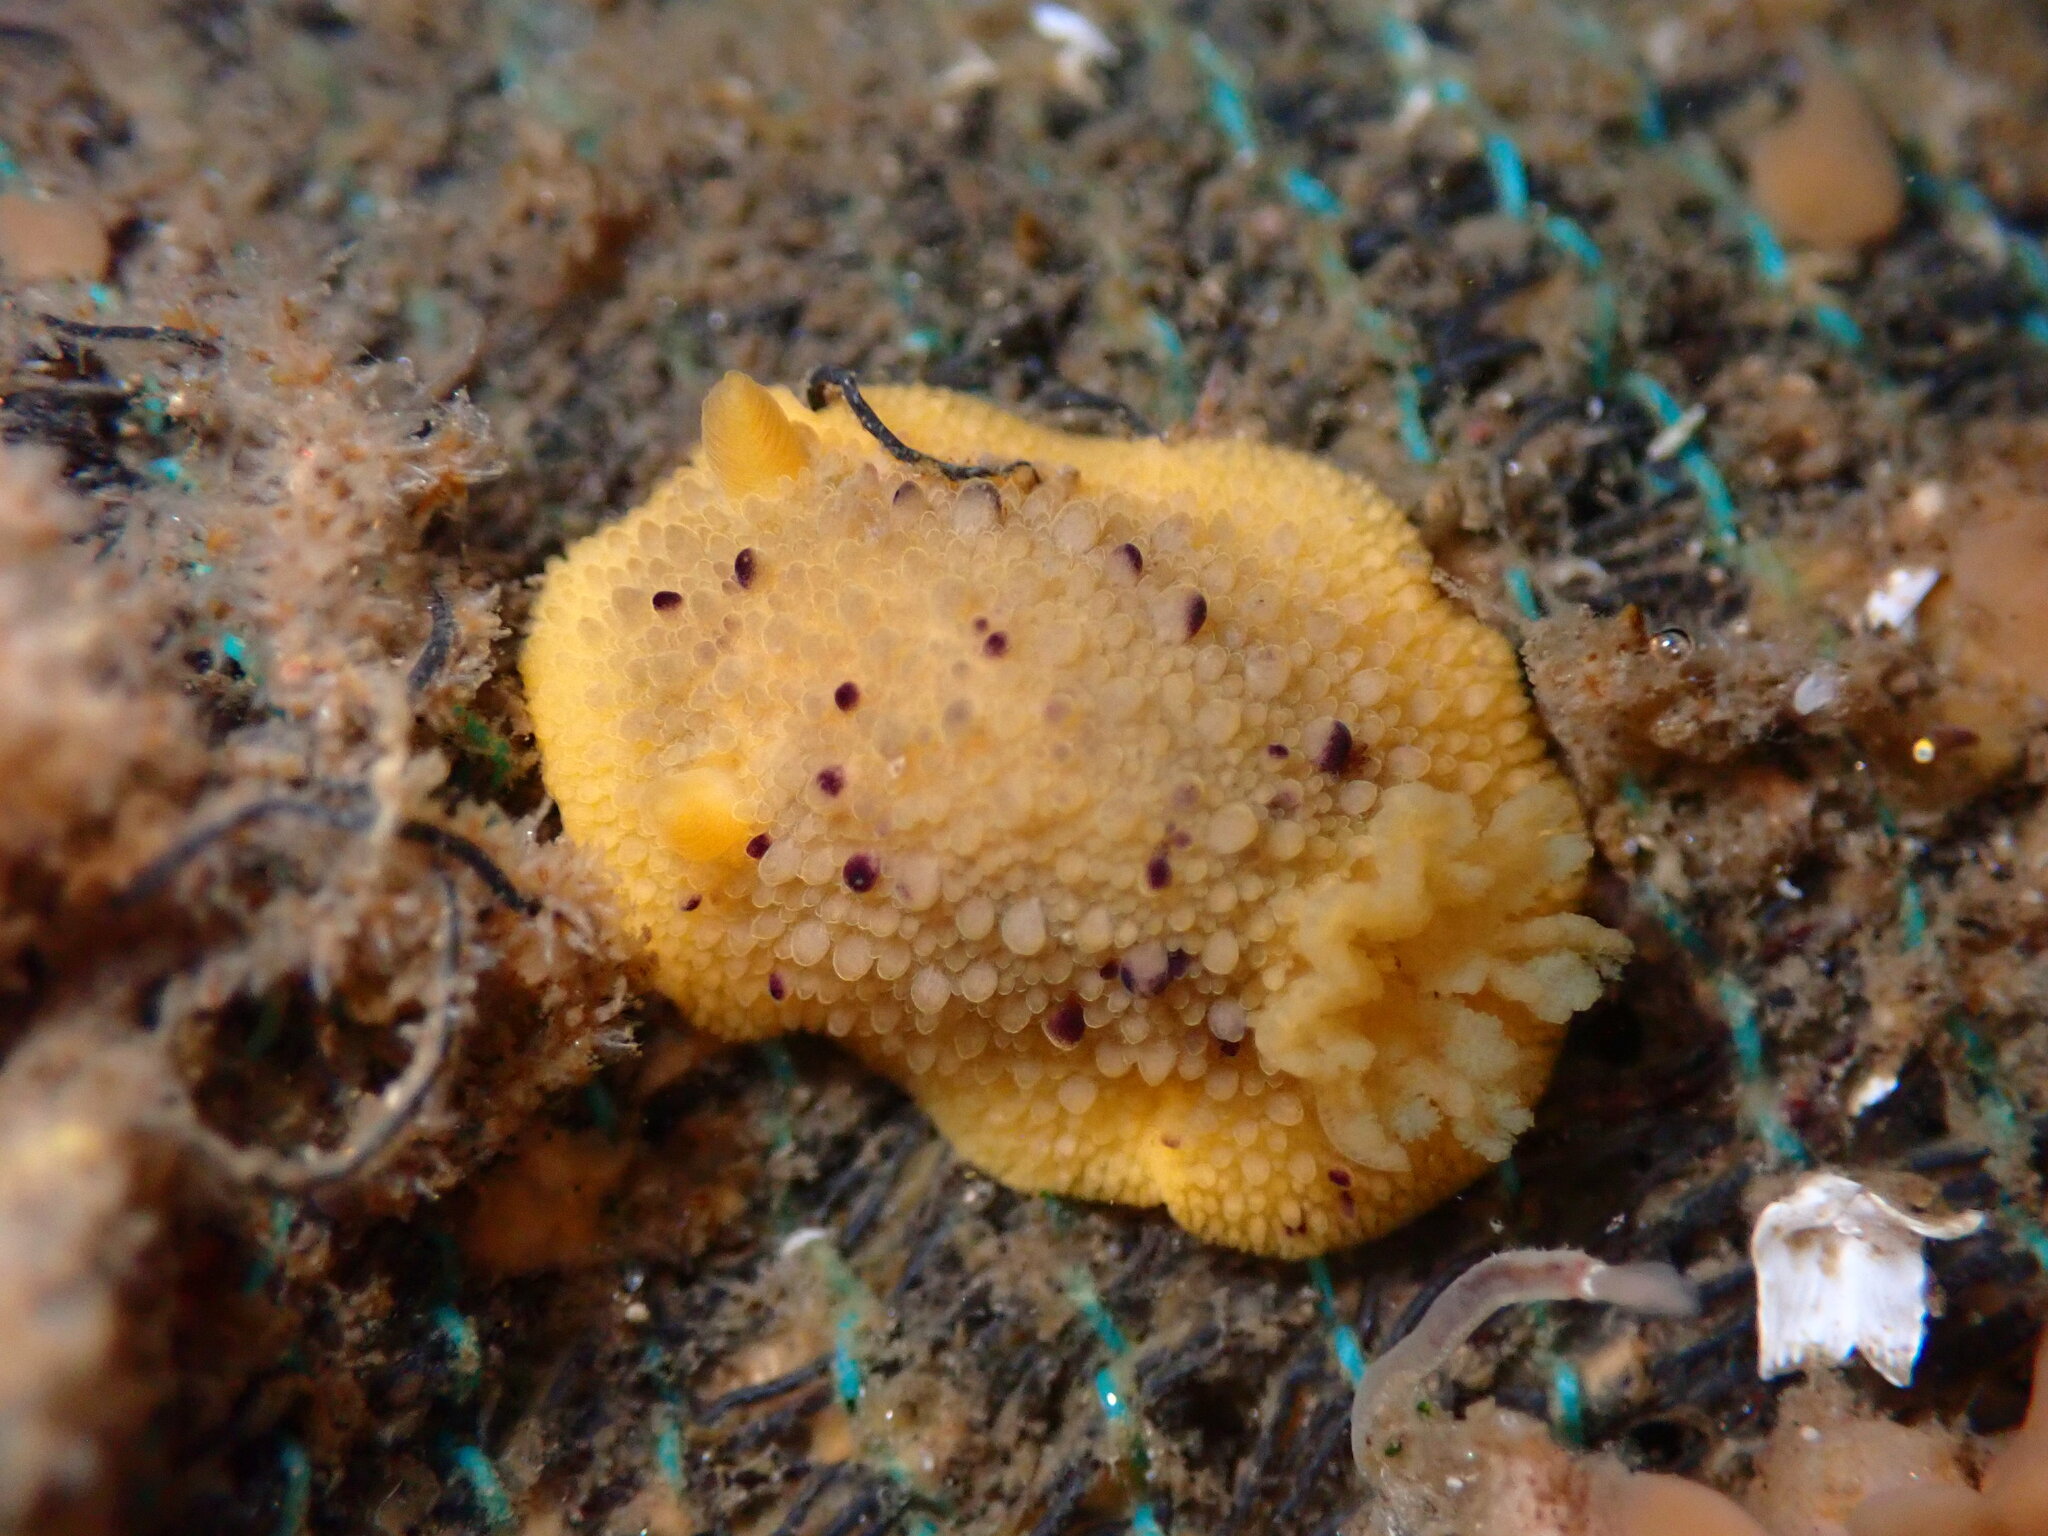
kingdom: Animalia
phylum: Mollusca
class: Gastropoda
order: Nudibranchia
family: Dorididae
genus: Doris
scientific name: Doris montereyensis
